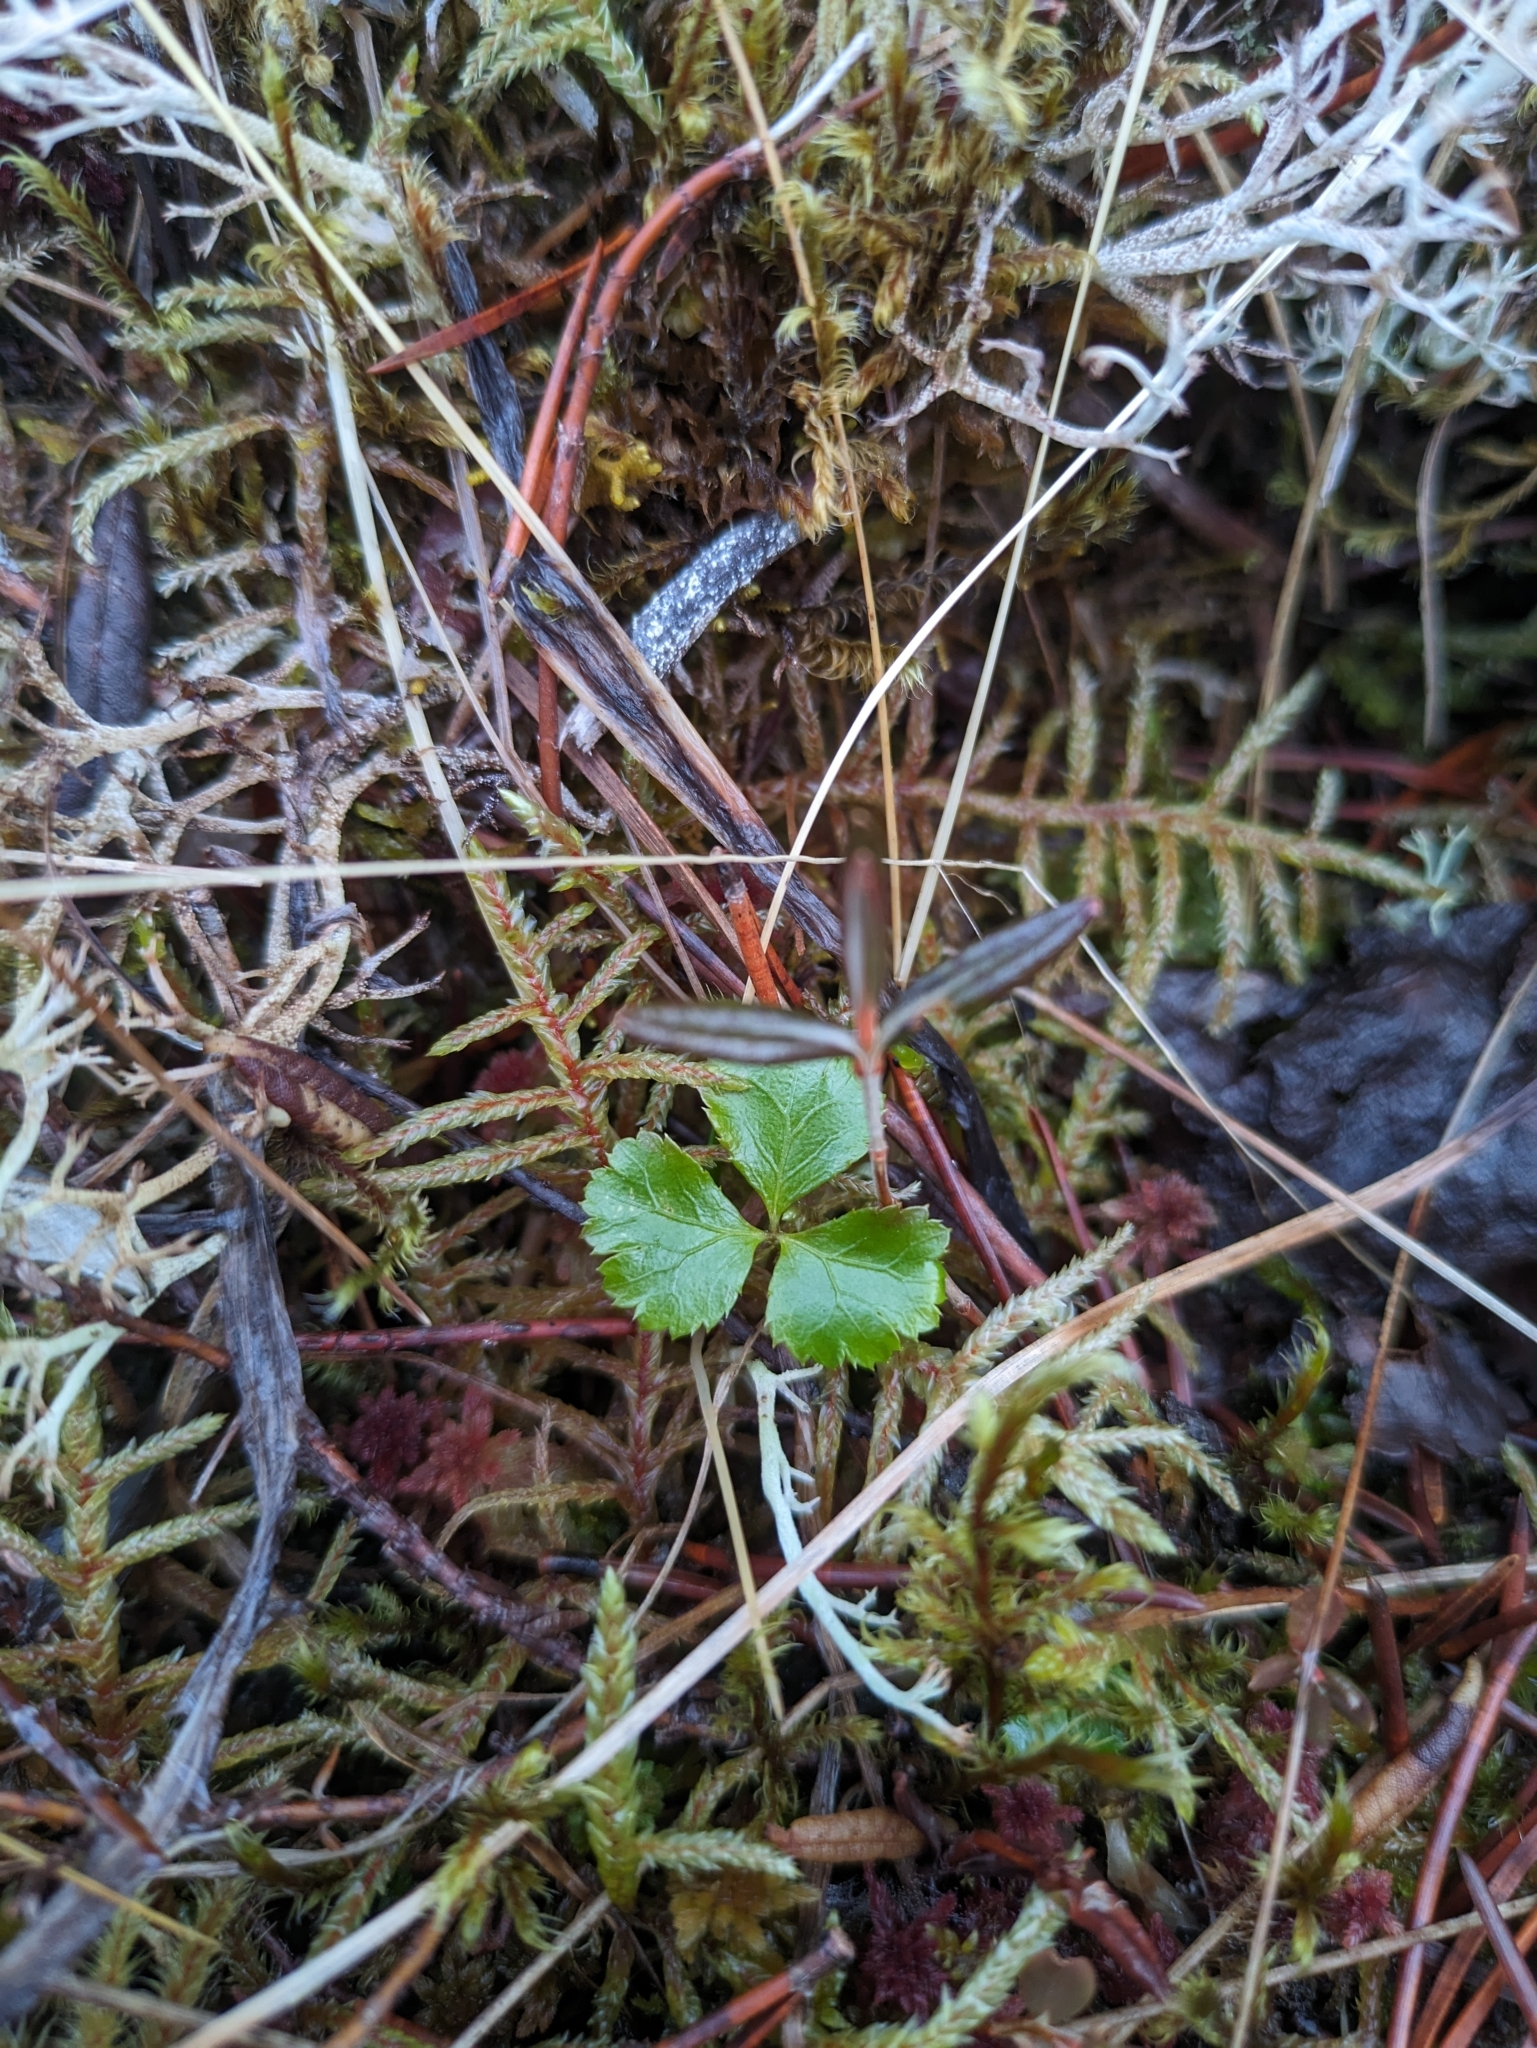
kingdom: Plantae
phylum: Tracheophyta
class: Magnoliopsida
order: Ranunculales
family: Ranunculaceae
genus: Coptis
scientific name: Coptis trifolia
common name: Canker-root
